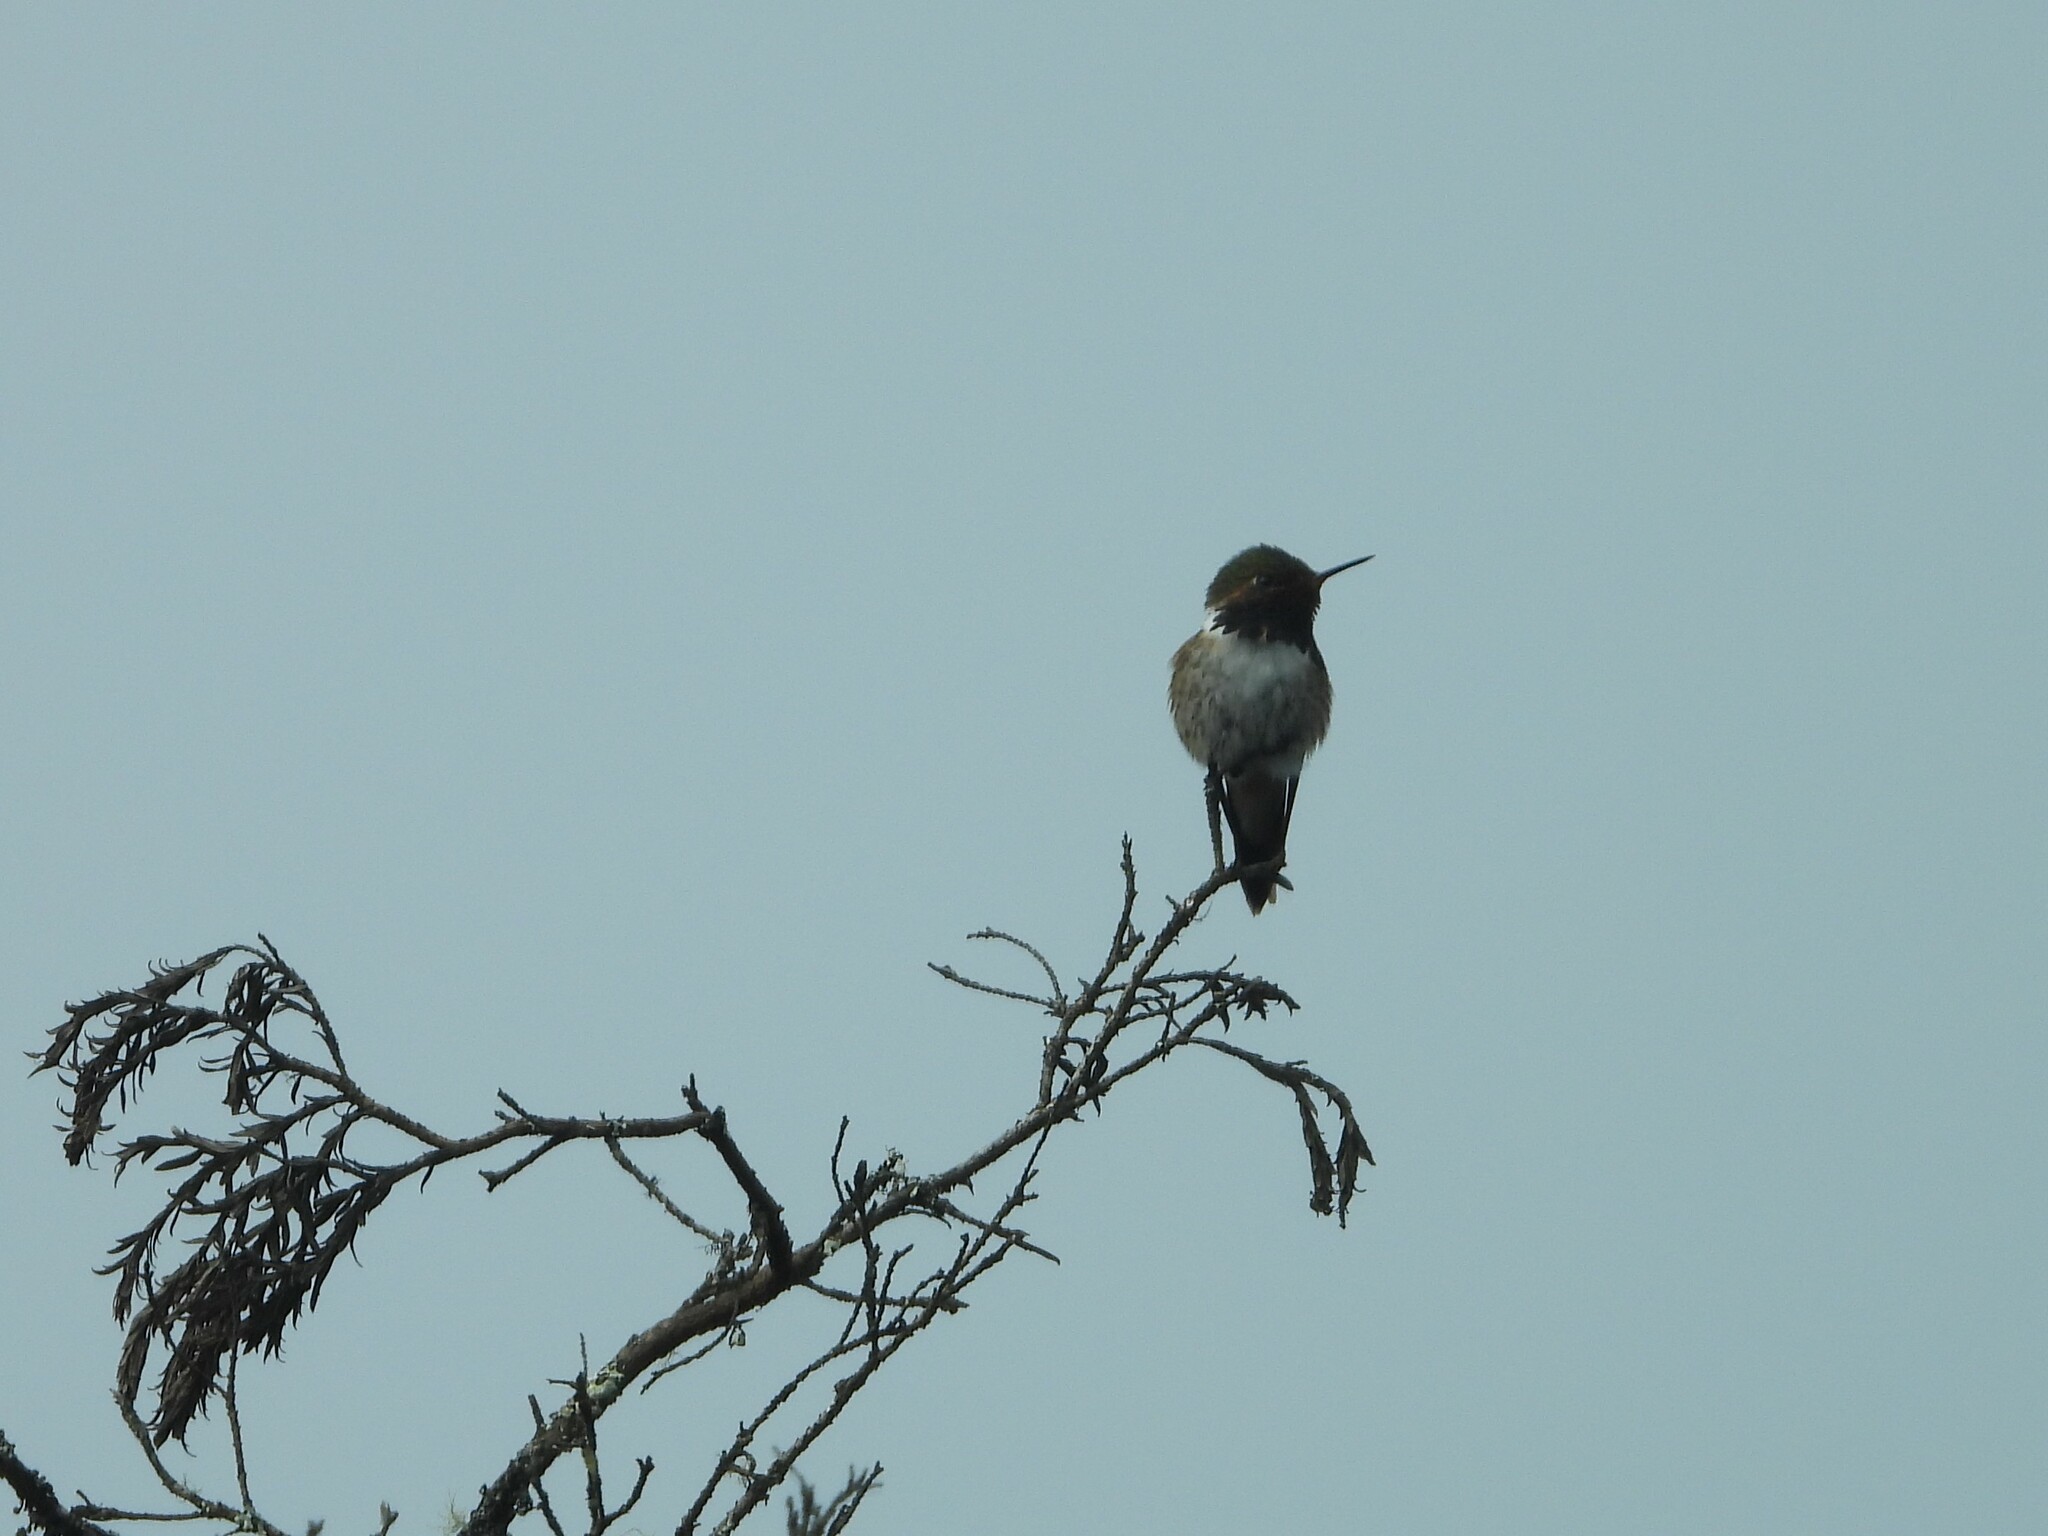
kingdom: Animalia
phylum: Chordata
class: Aves
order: Apodiformes
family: Trochilidae
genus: Selasphorus
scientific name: Selasphorus flammula
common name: Volcano hummingbird
